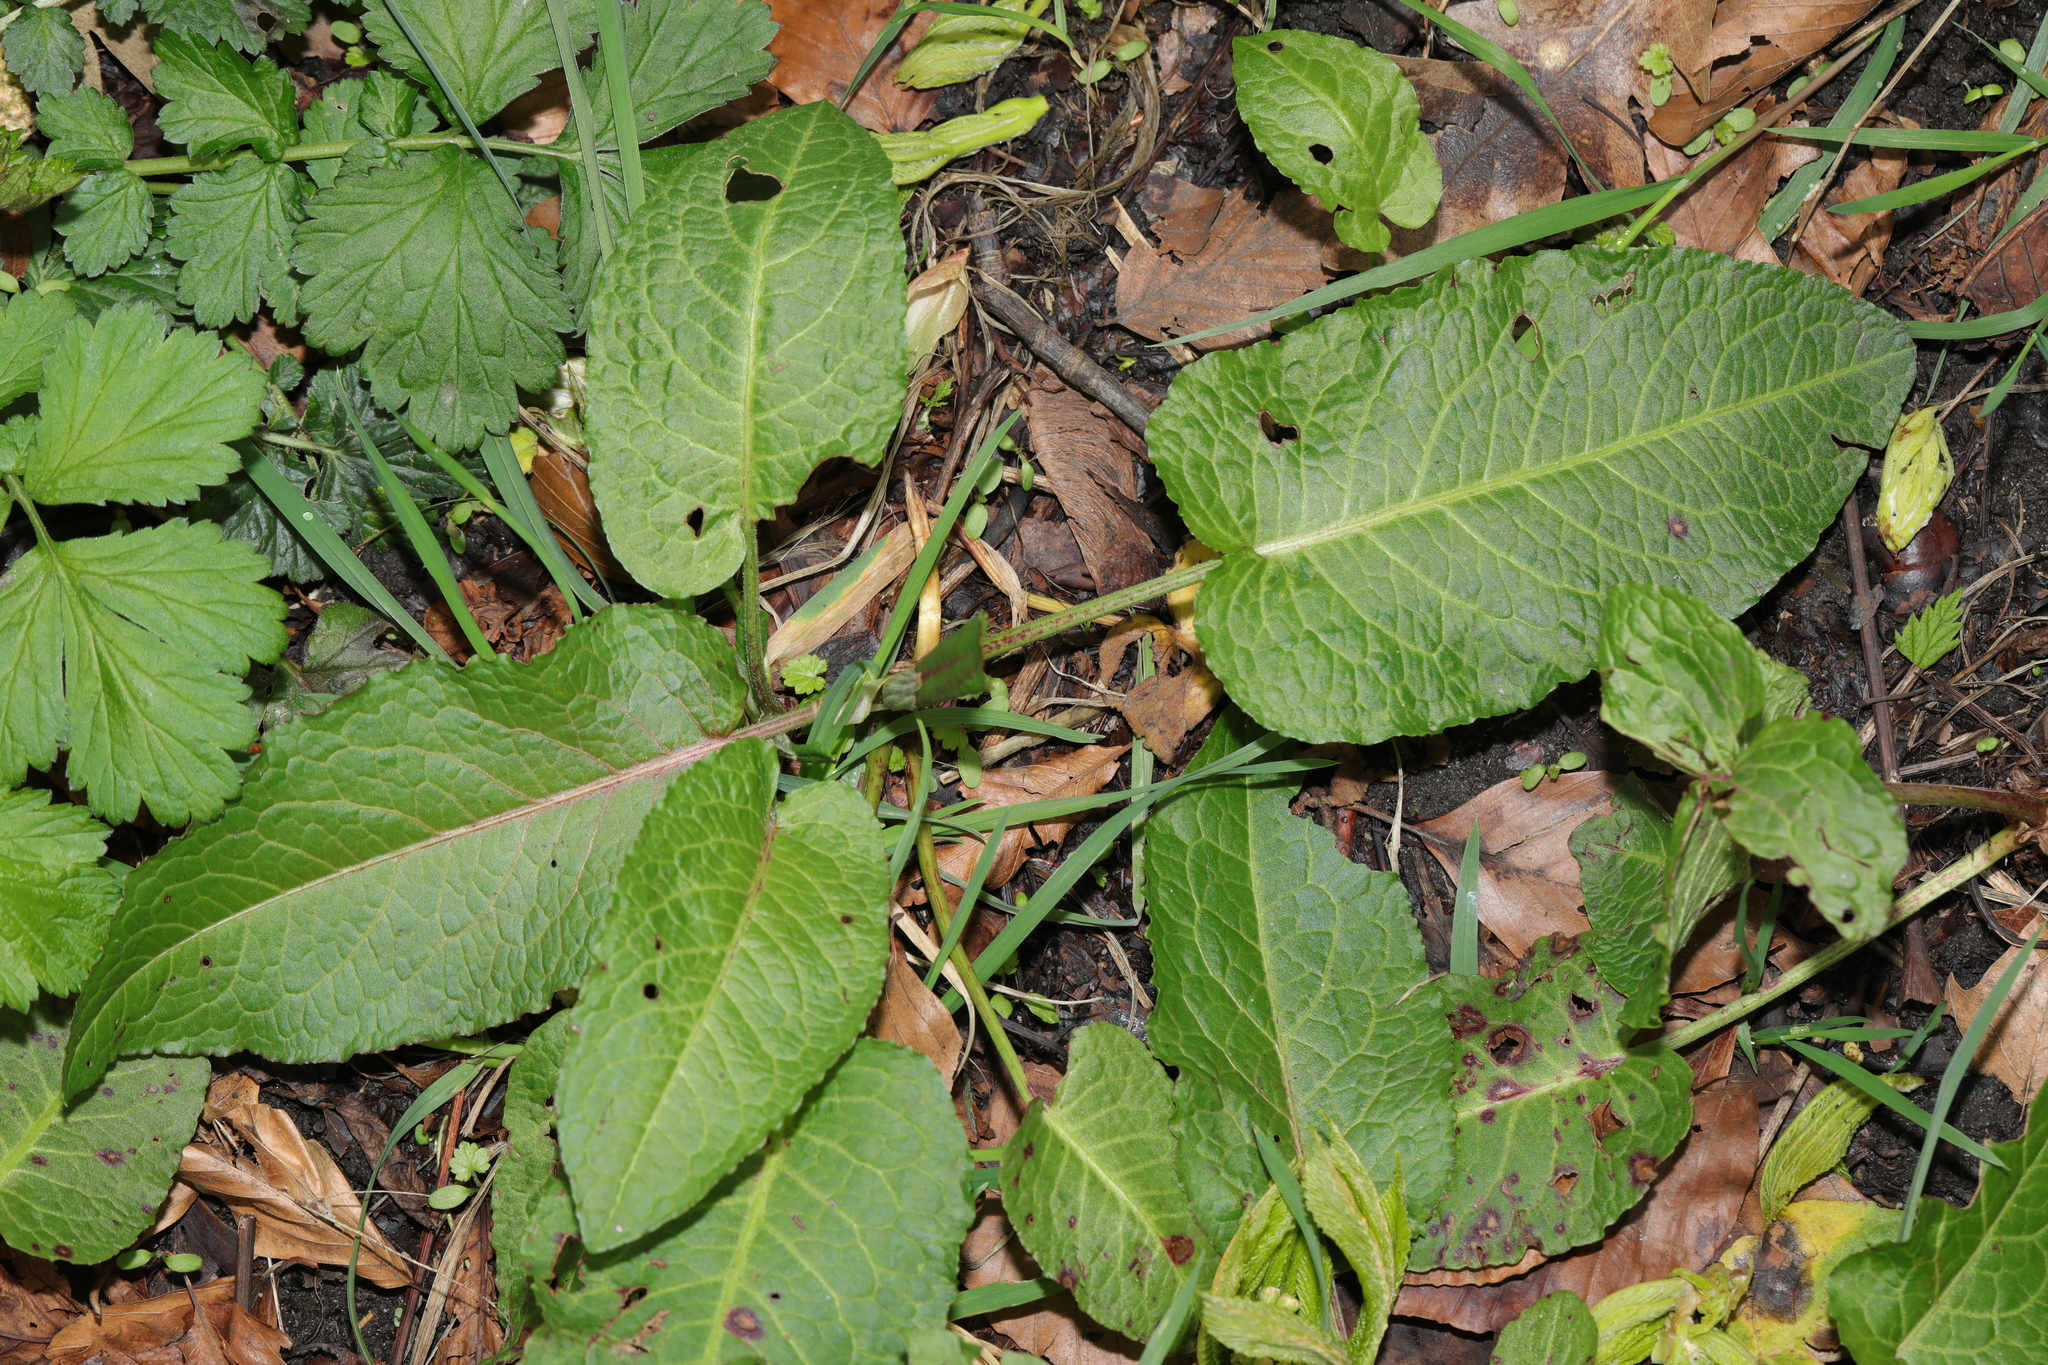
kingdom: Plantae
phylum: Tracheophyta
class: Magnoliopsida
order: Caryophyllales
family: Polygonaceae
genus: Rumex
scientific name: Rumex obtusifolius
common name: Bitter dock
